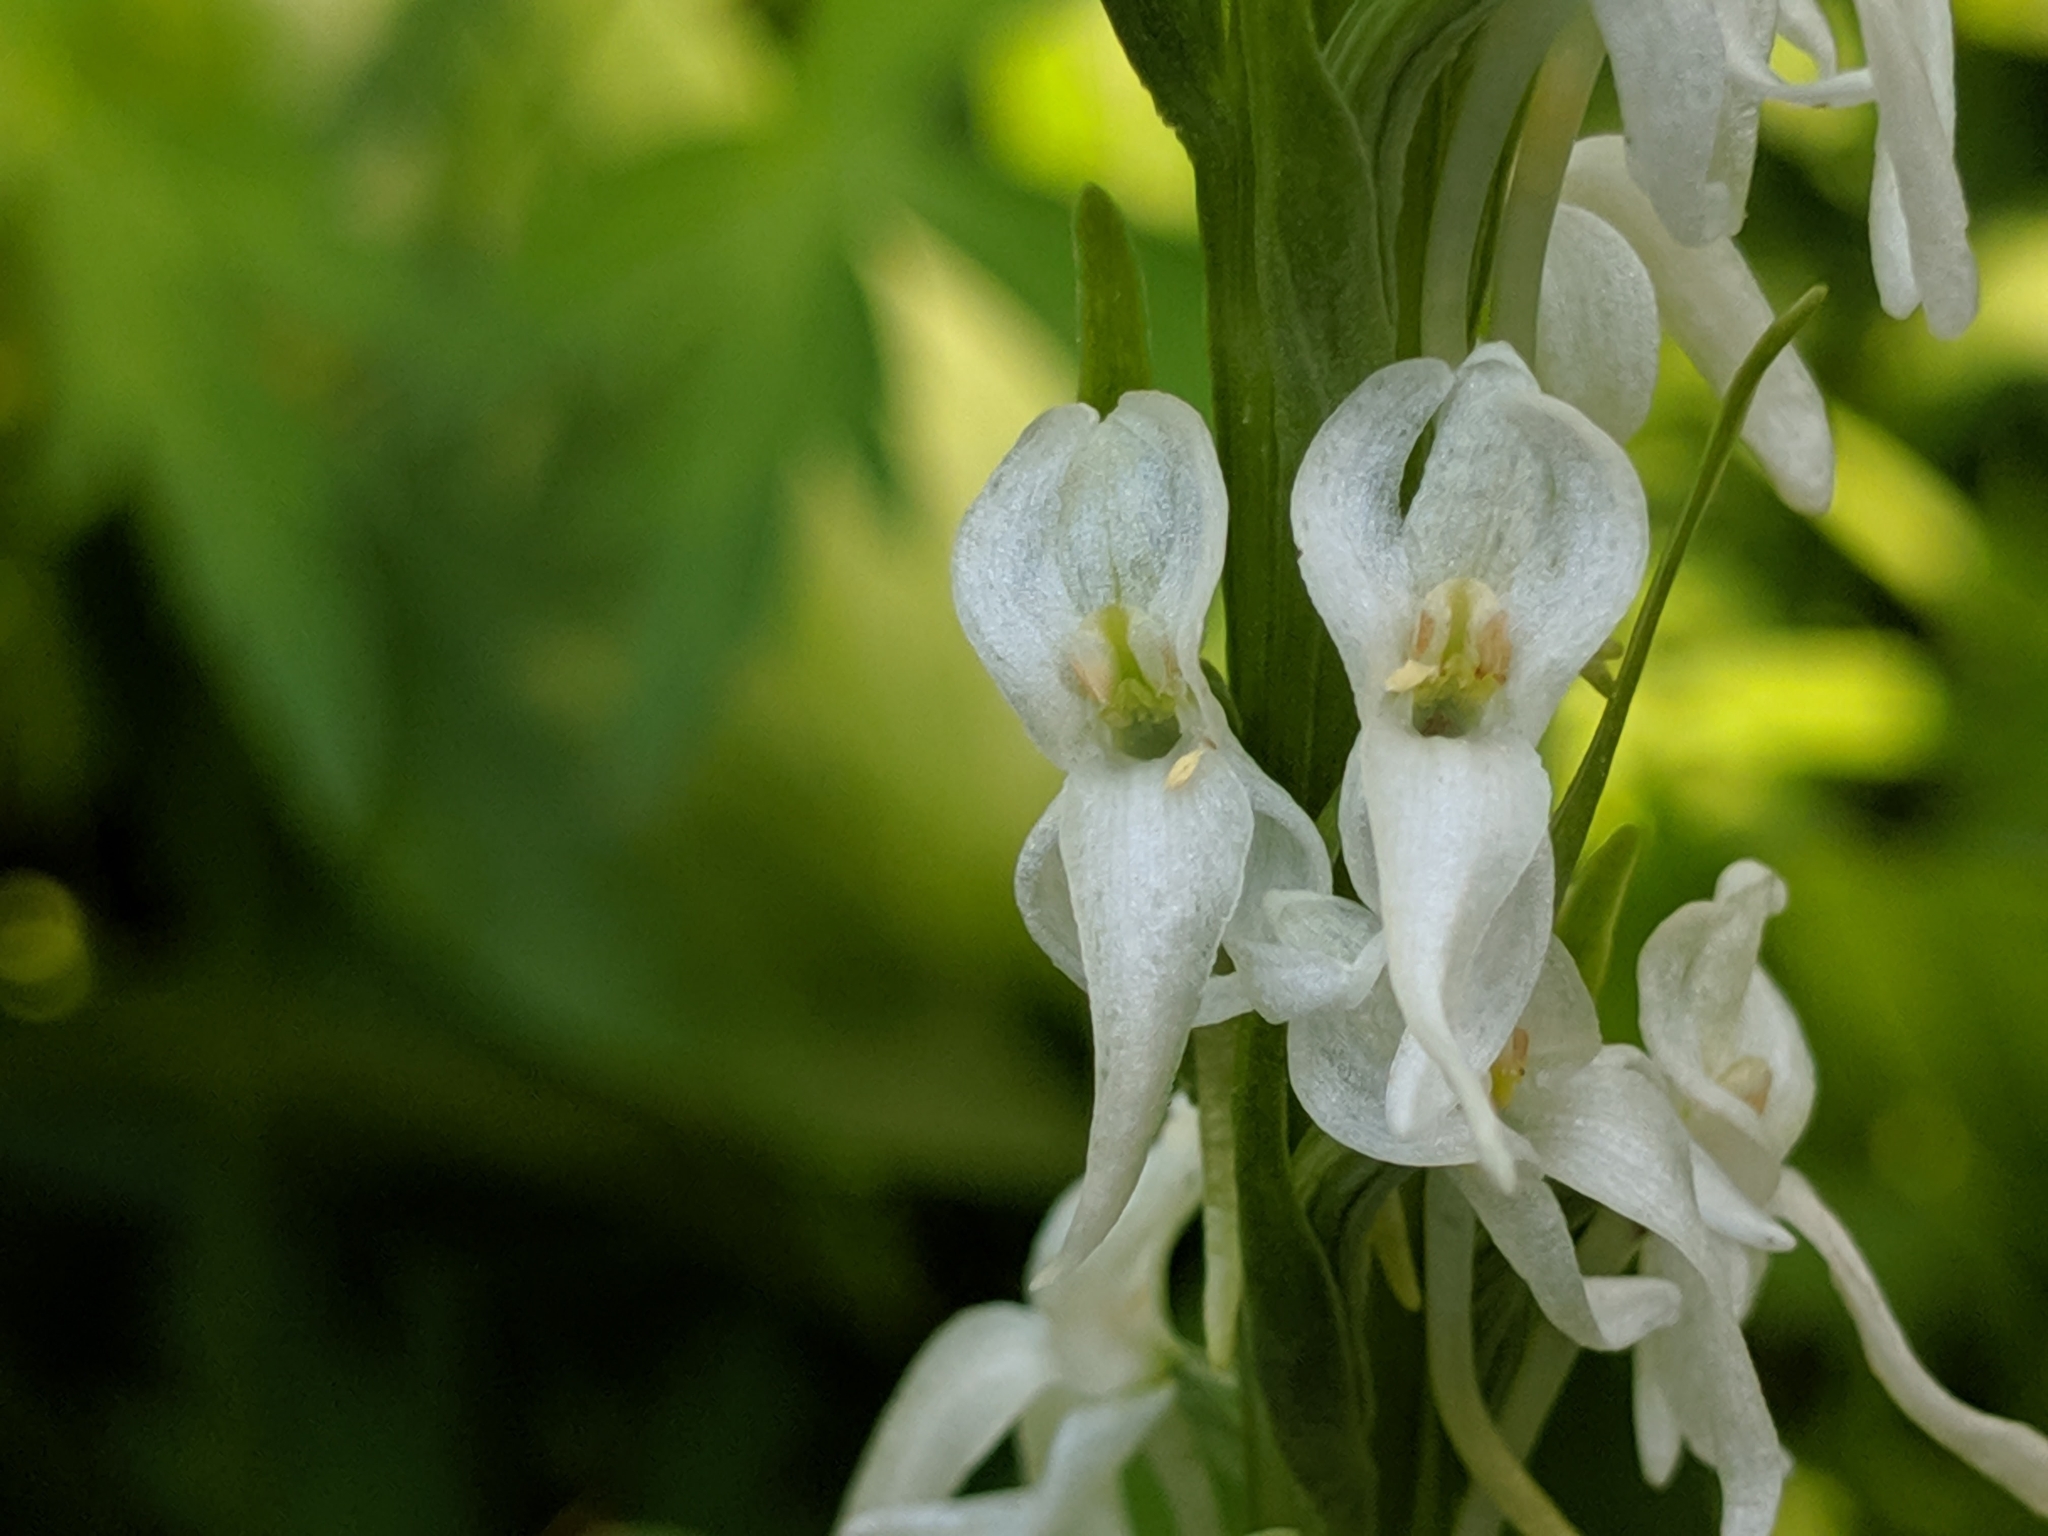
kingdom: Plantae
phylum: Tracheophyta
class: Liliopsida
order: Asparagales
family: Orchidaceae
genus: Platanthera
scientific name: Platanthera dilatata
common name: Bog candles
